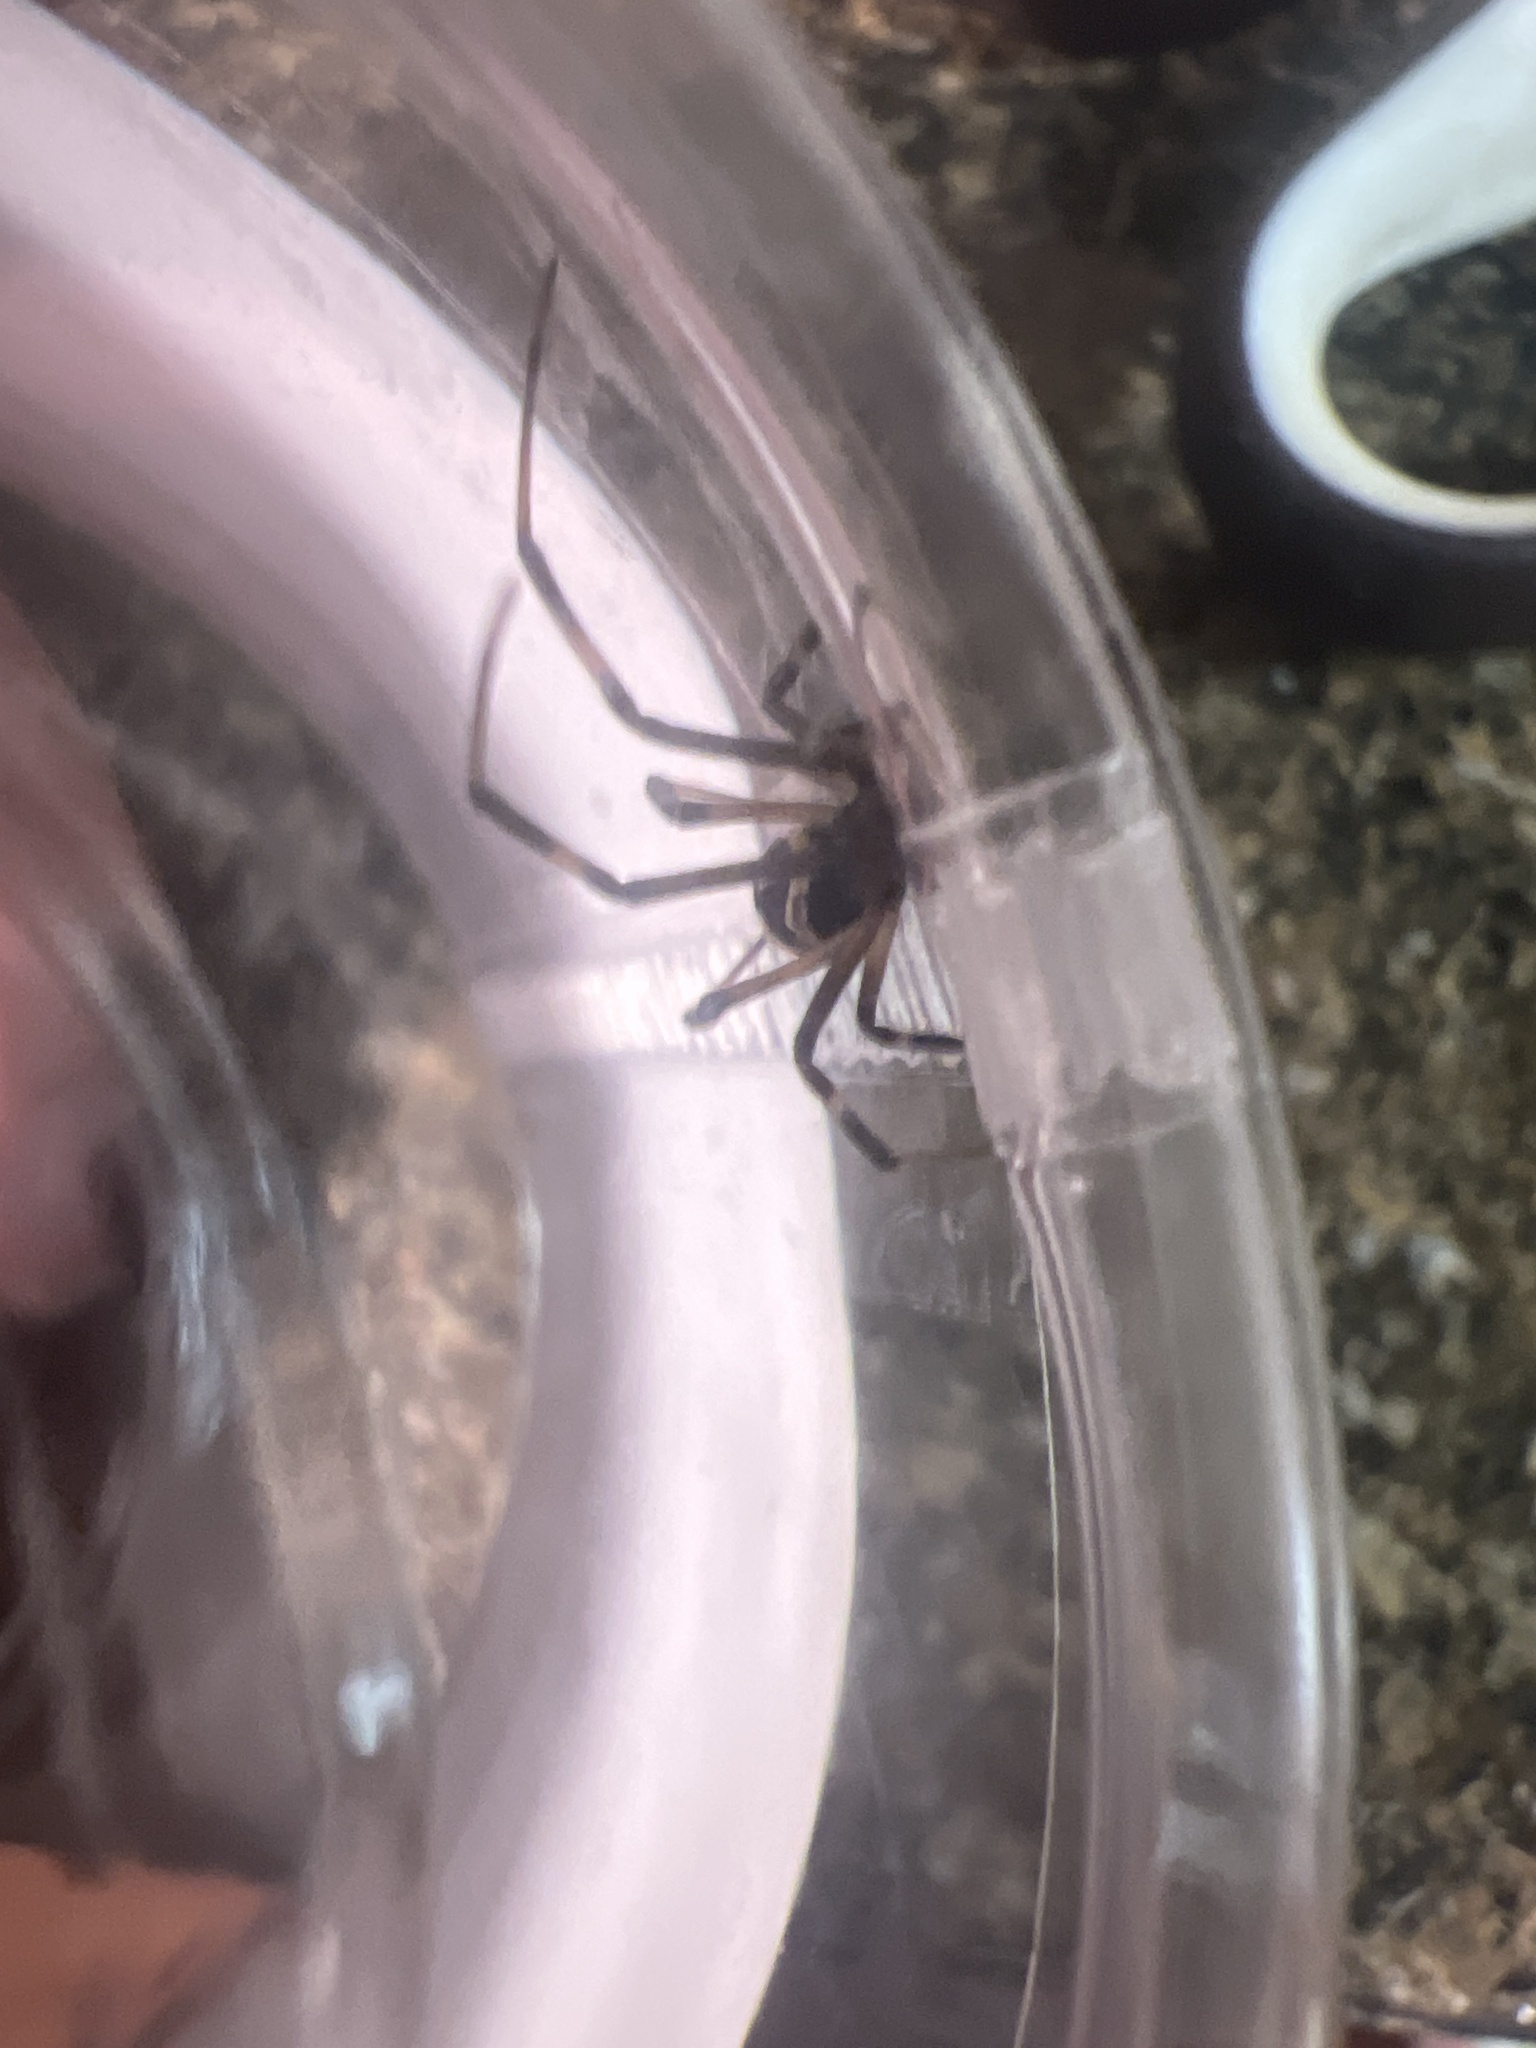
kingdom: Animalia
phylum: Arthropoda
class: Arachnida
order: Araneae
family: Theridiidae
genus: Latrodectus
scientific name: Latrodectus hesperus
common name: Western black widow
